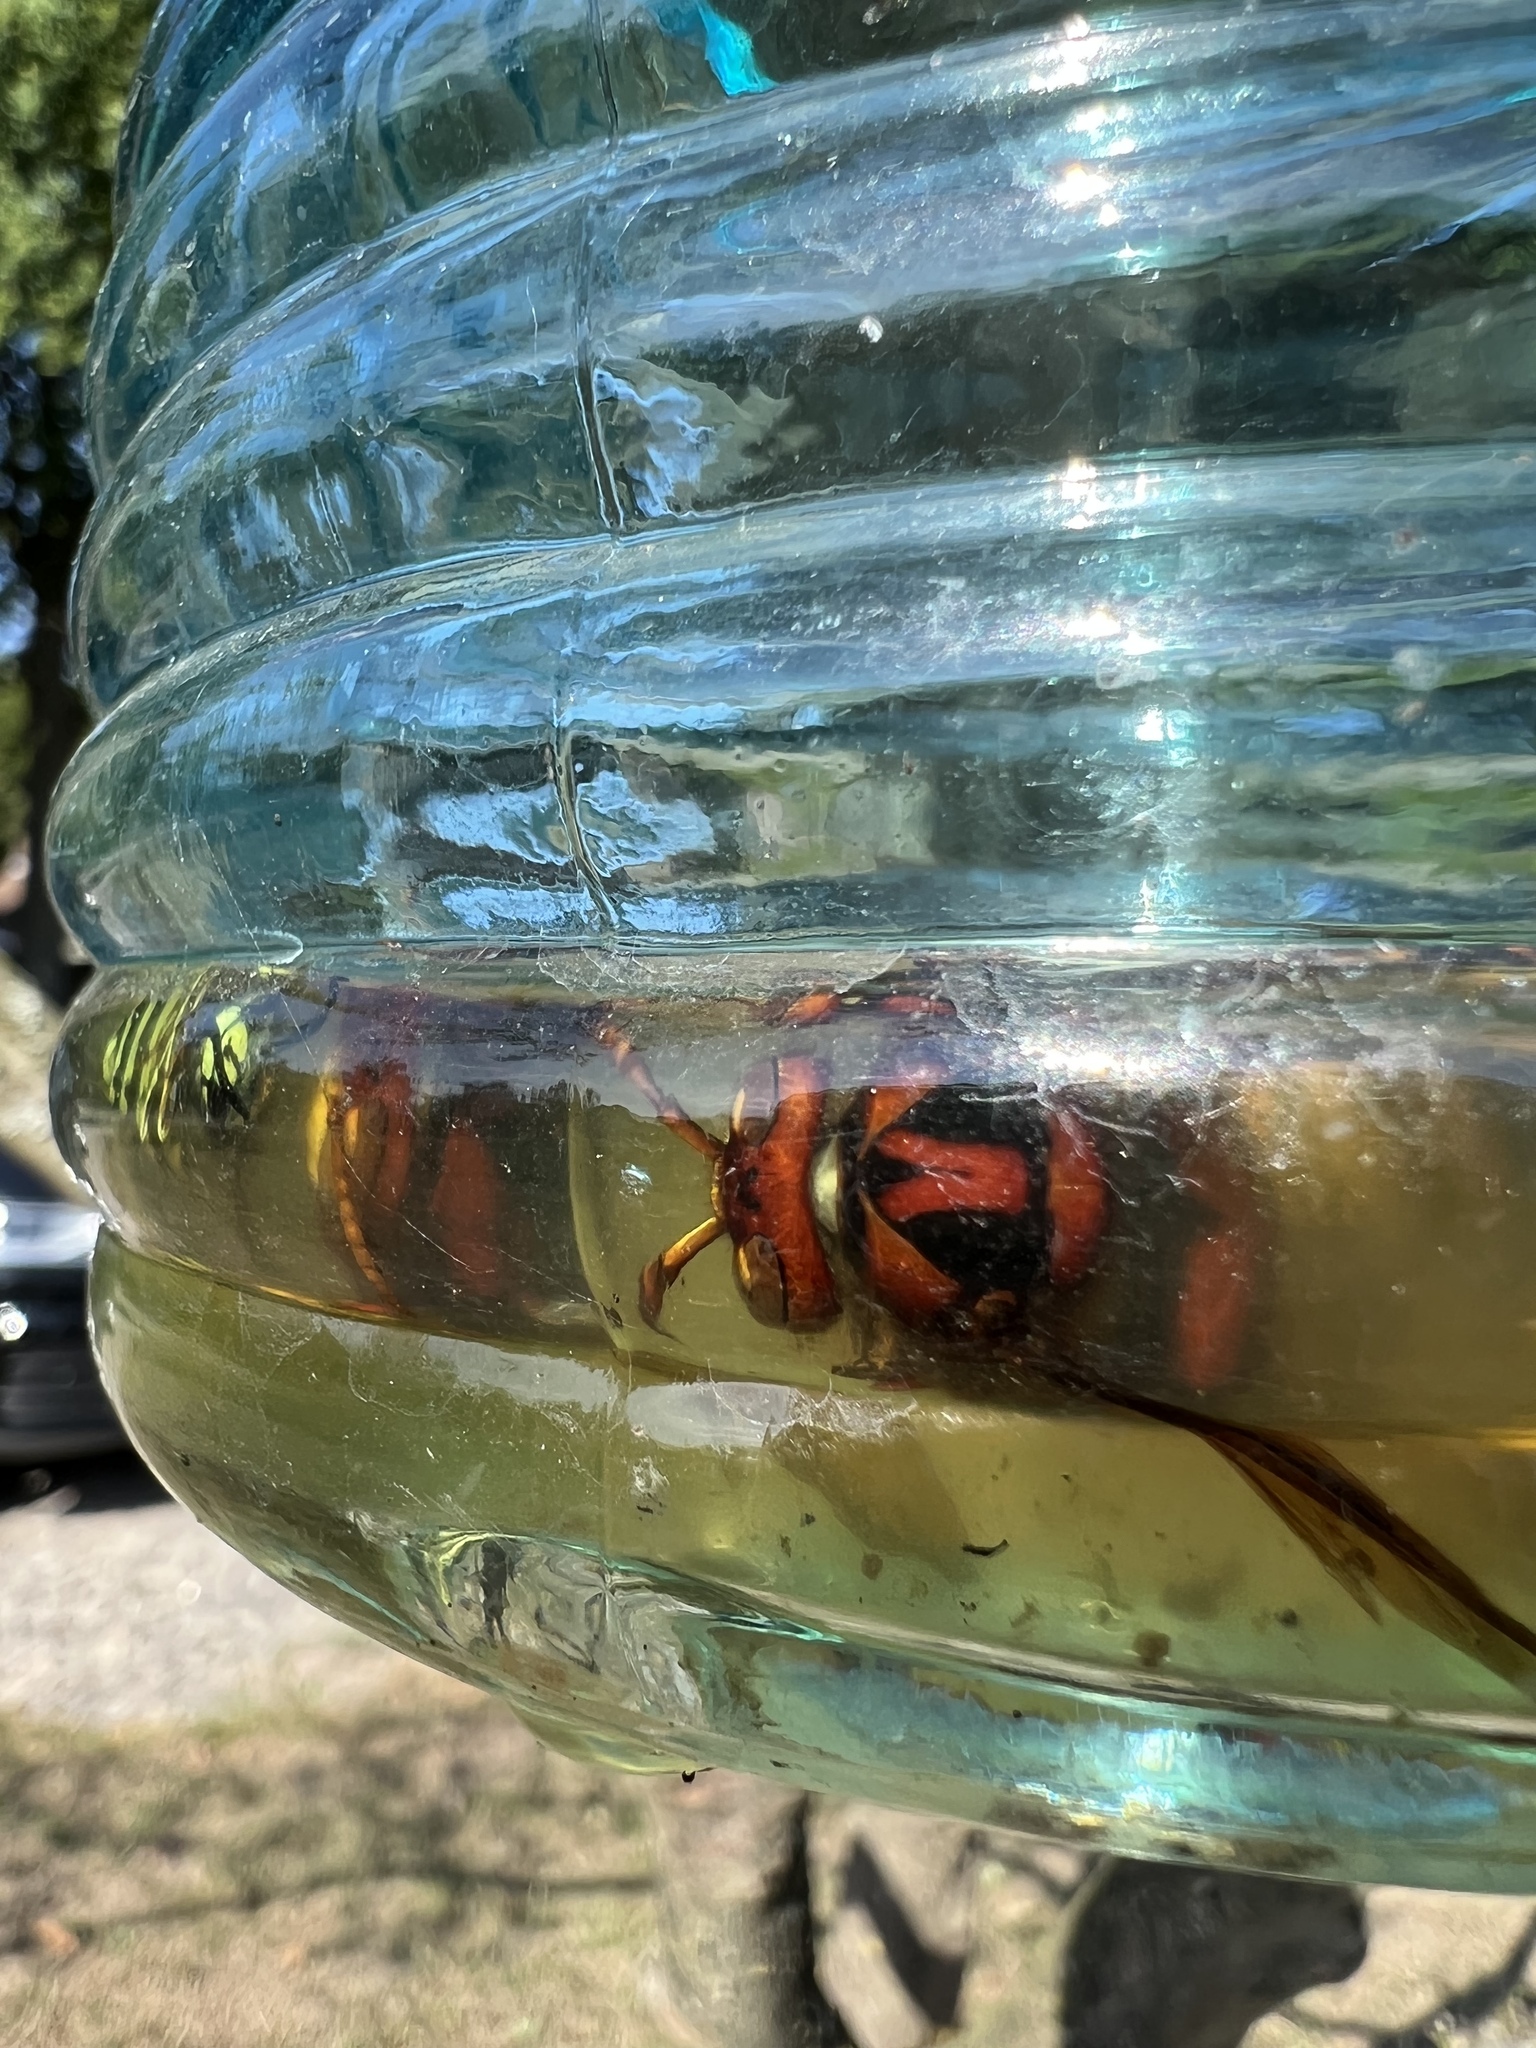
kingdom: Animalia
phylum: Arthropoda
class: Insecta
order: Hymenoptera
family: Vespidae
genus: Vespa
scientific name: Vespa crabro
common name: Hornet
